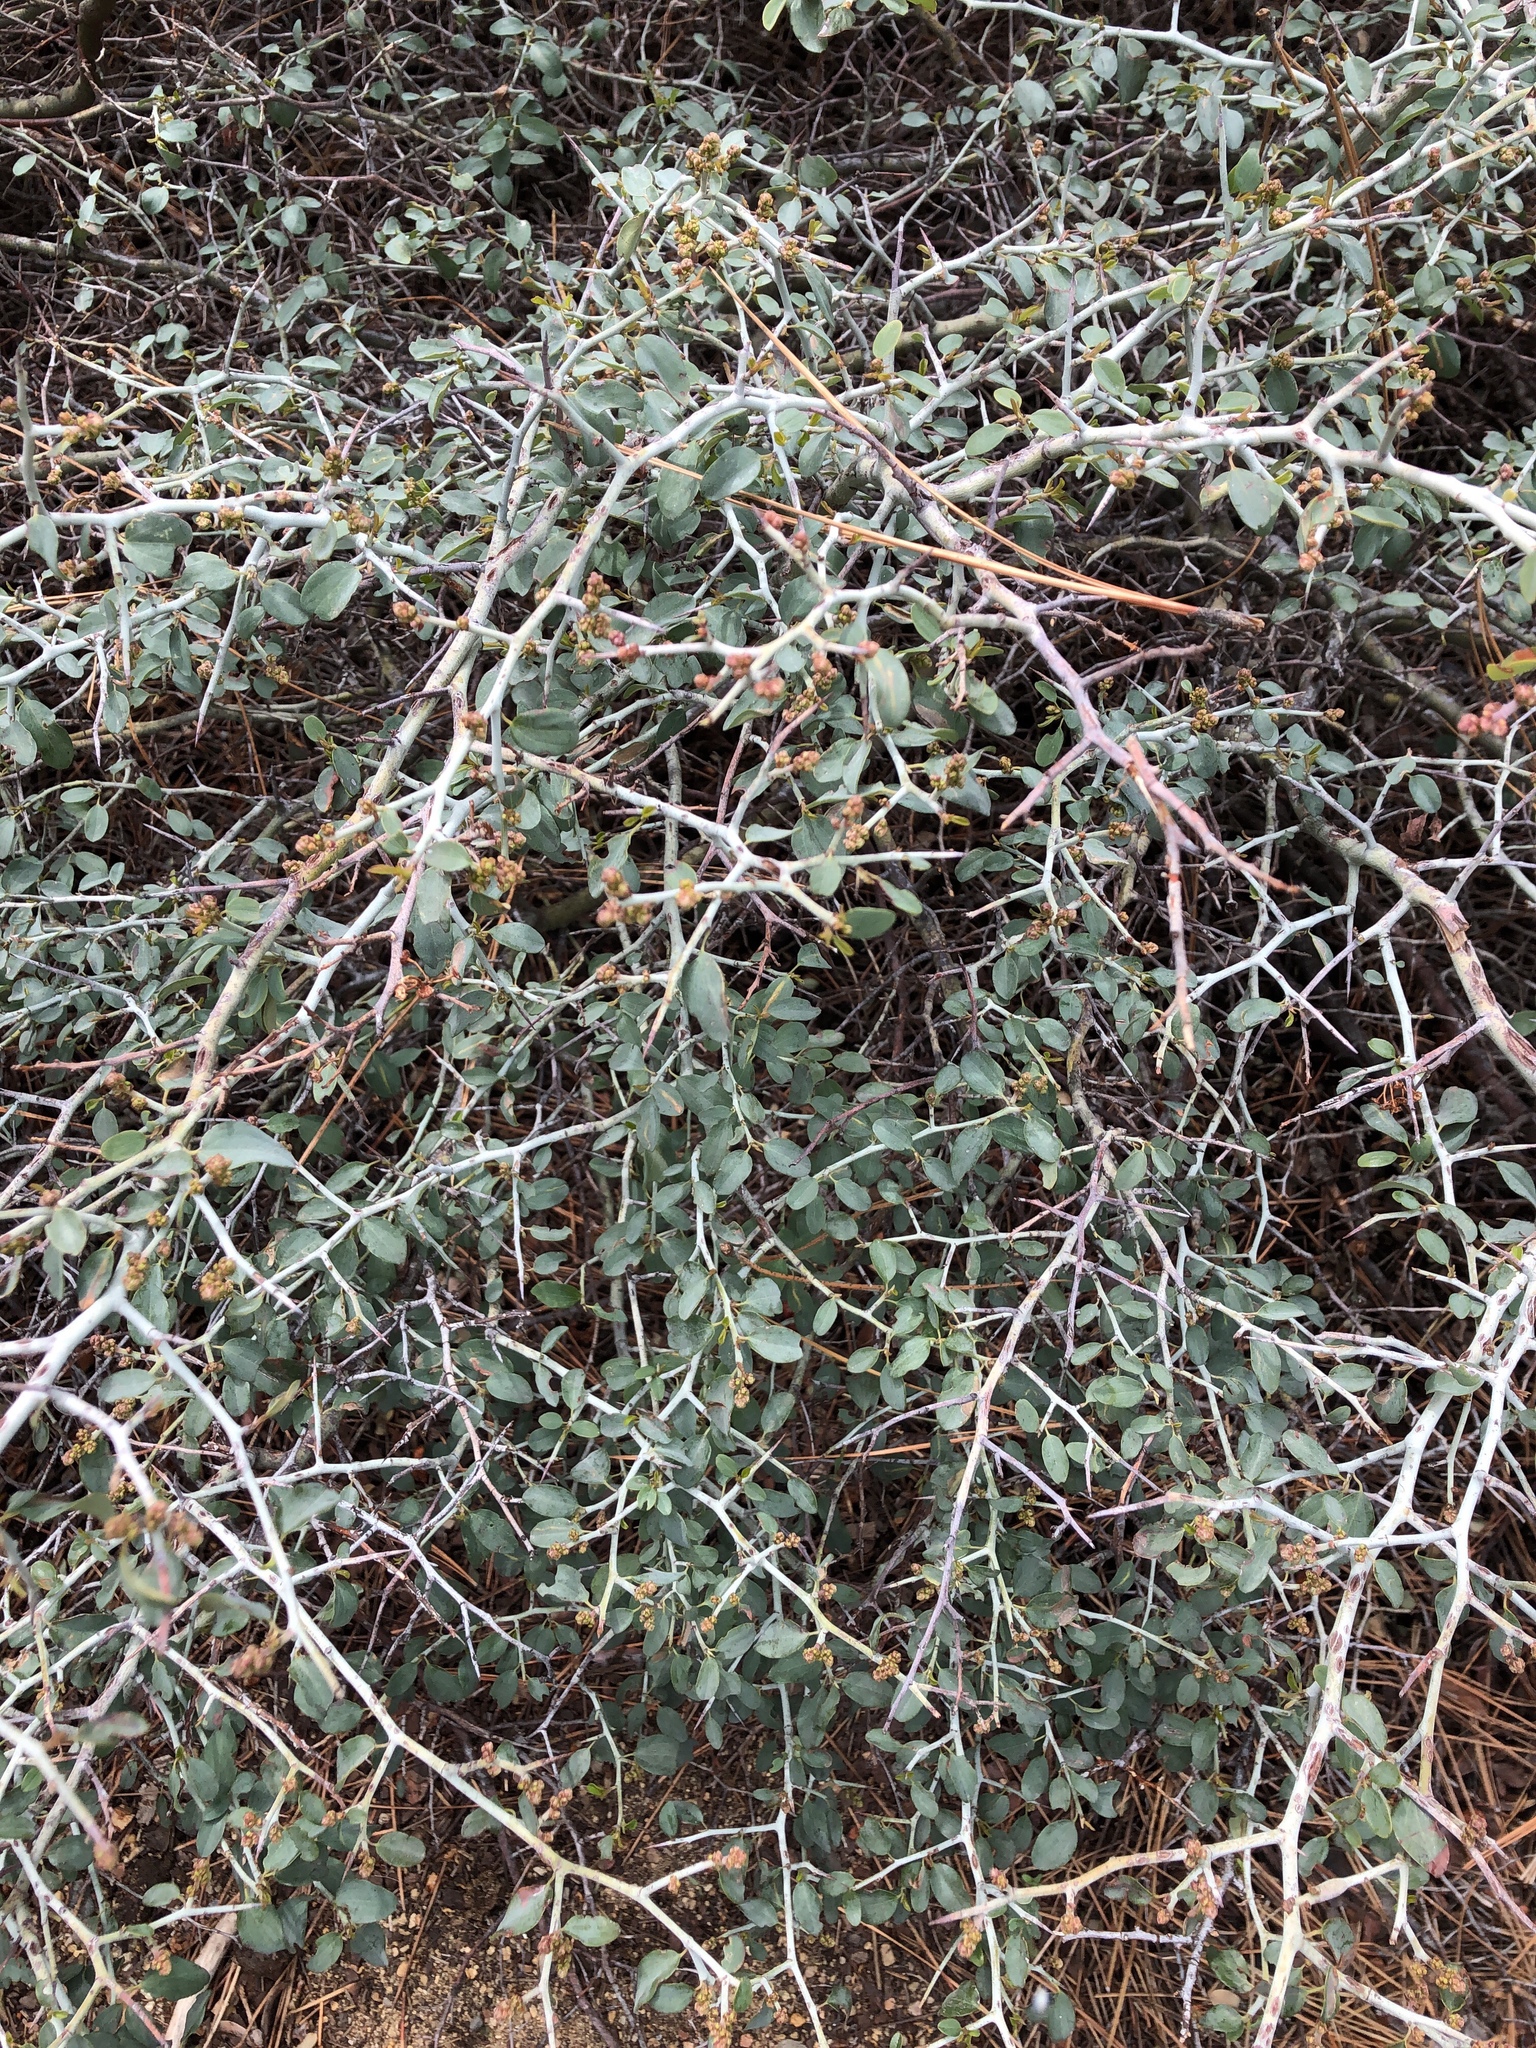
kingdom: Plantae
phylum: Tracheophyta
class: Magnoliopsida
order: Rosales
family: Rhamnaceae
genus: Ceanothus
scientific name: Ceanothus cordulatus
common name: Mountain whitethorn
